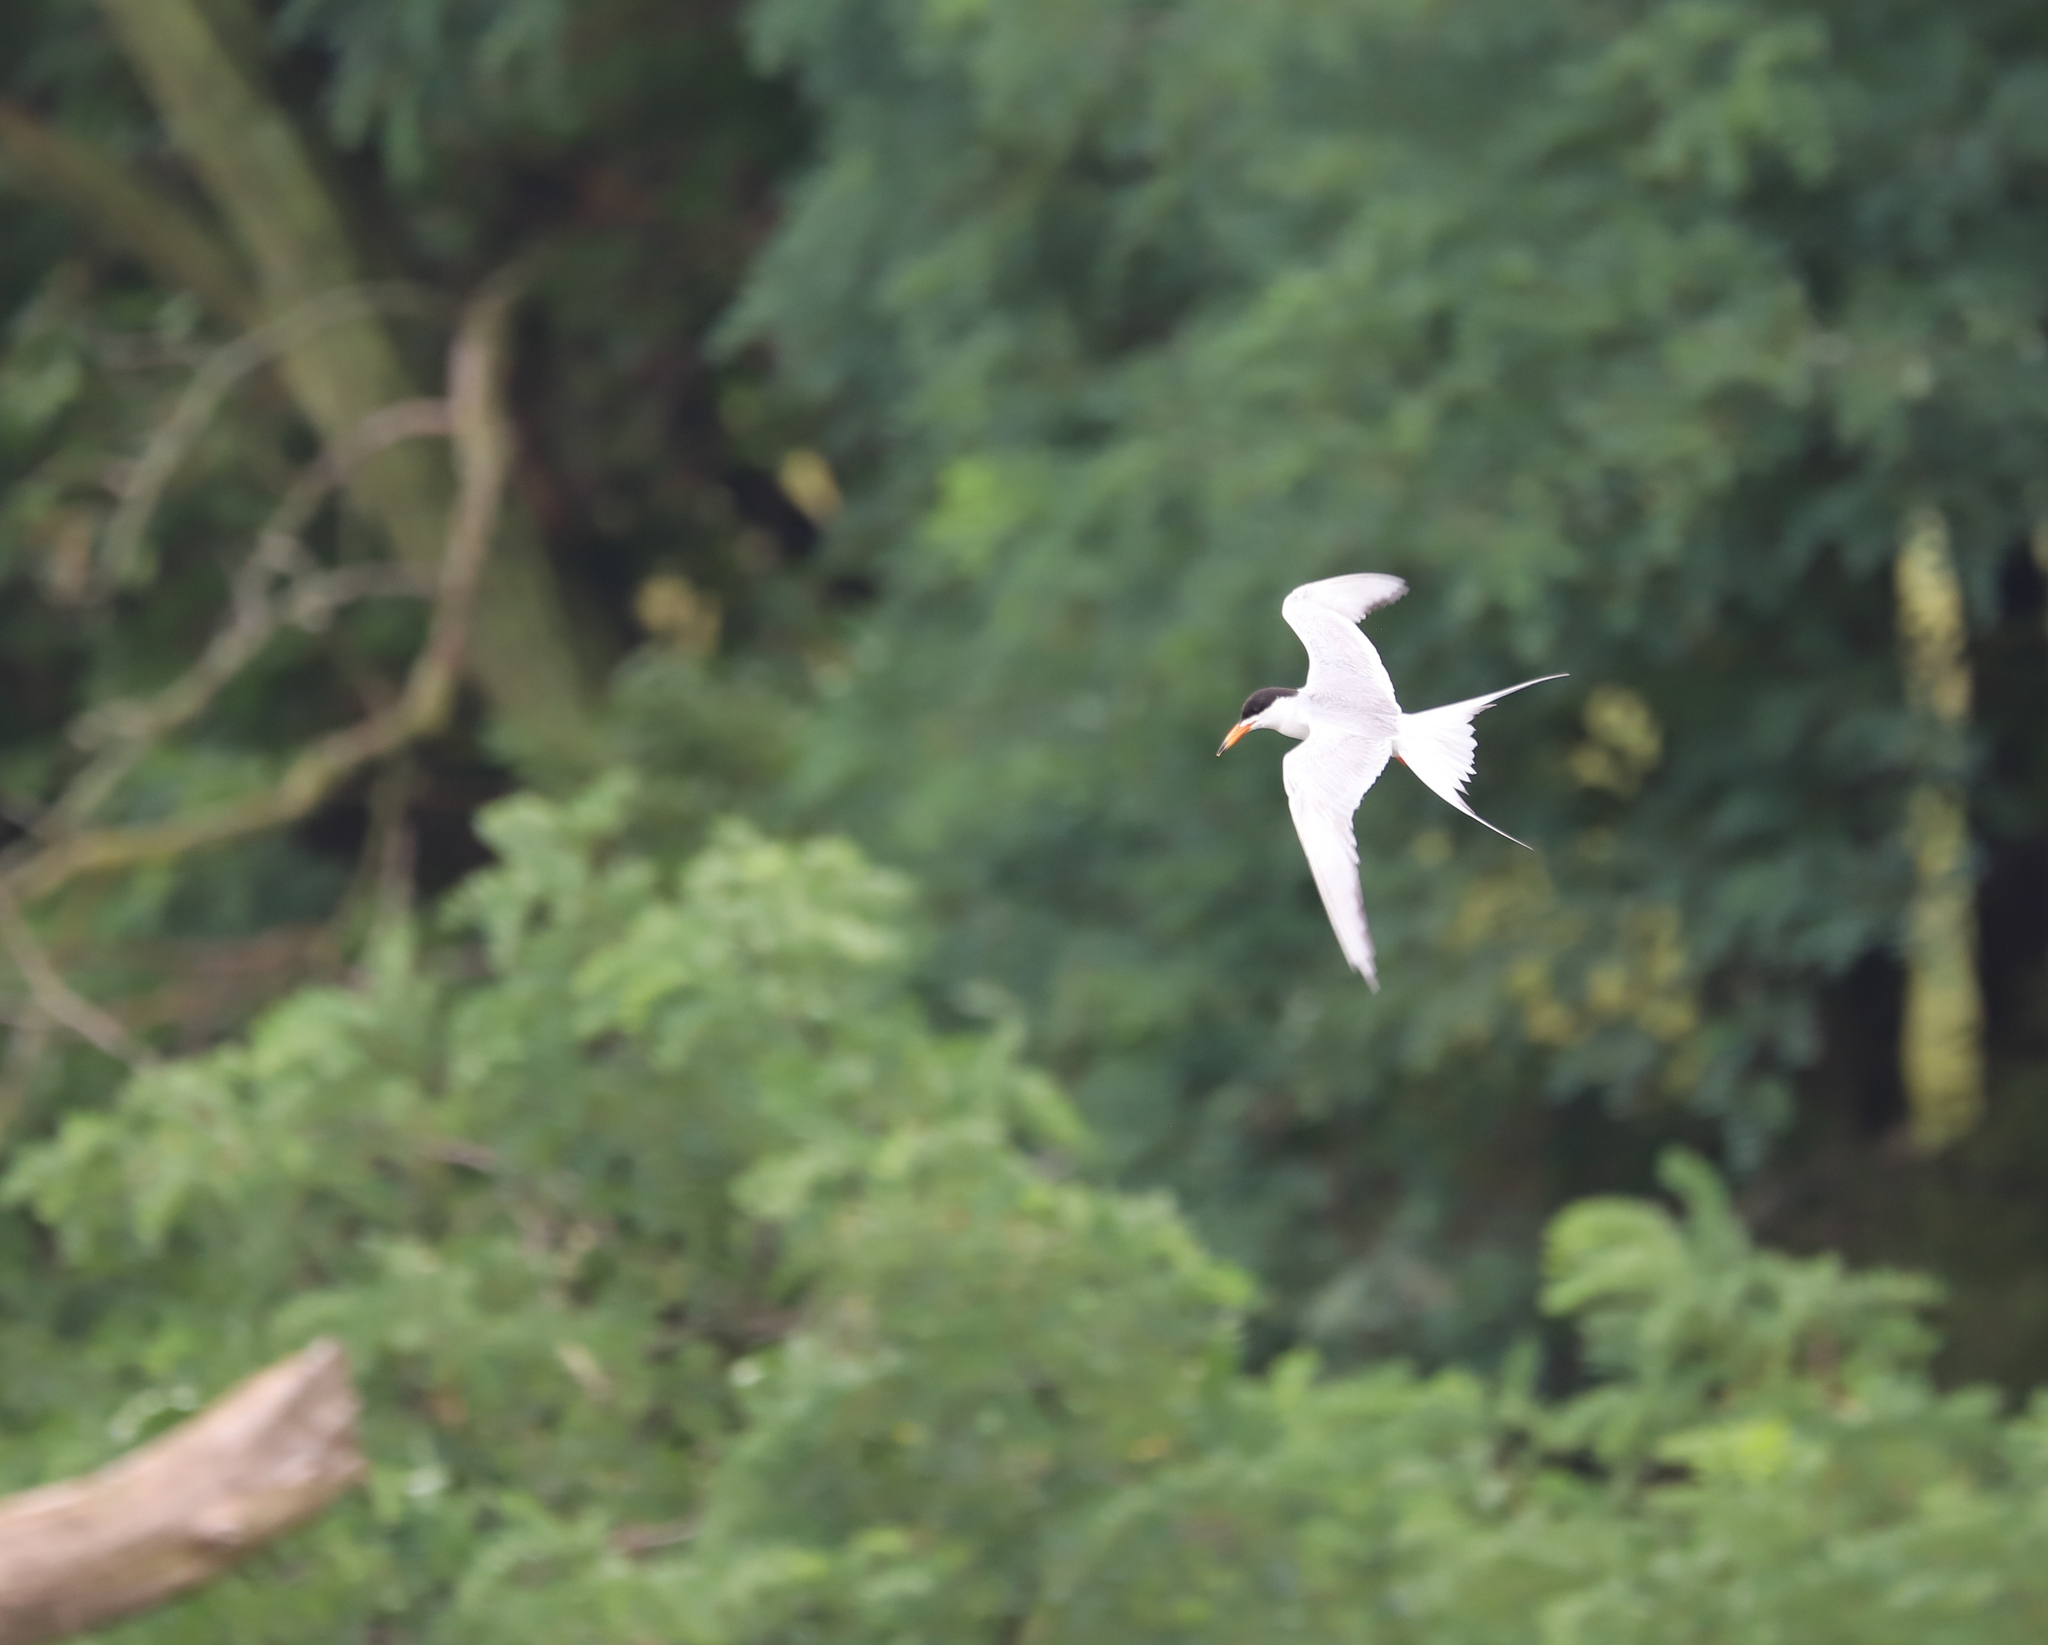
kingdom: Animalia
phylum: Chordata
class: Aves
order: Charadriiformes
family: Laridae
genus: Sterna
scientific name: Sterna forsteri
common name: Forster's tern
